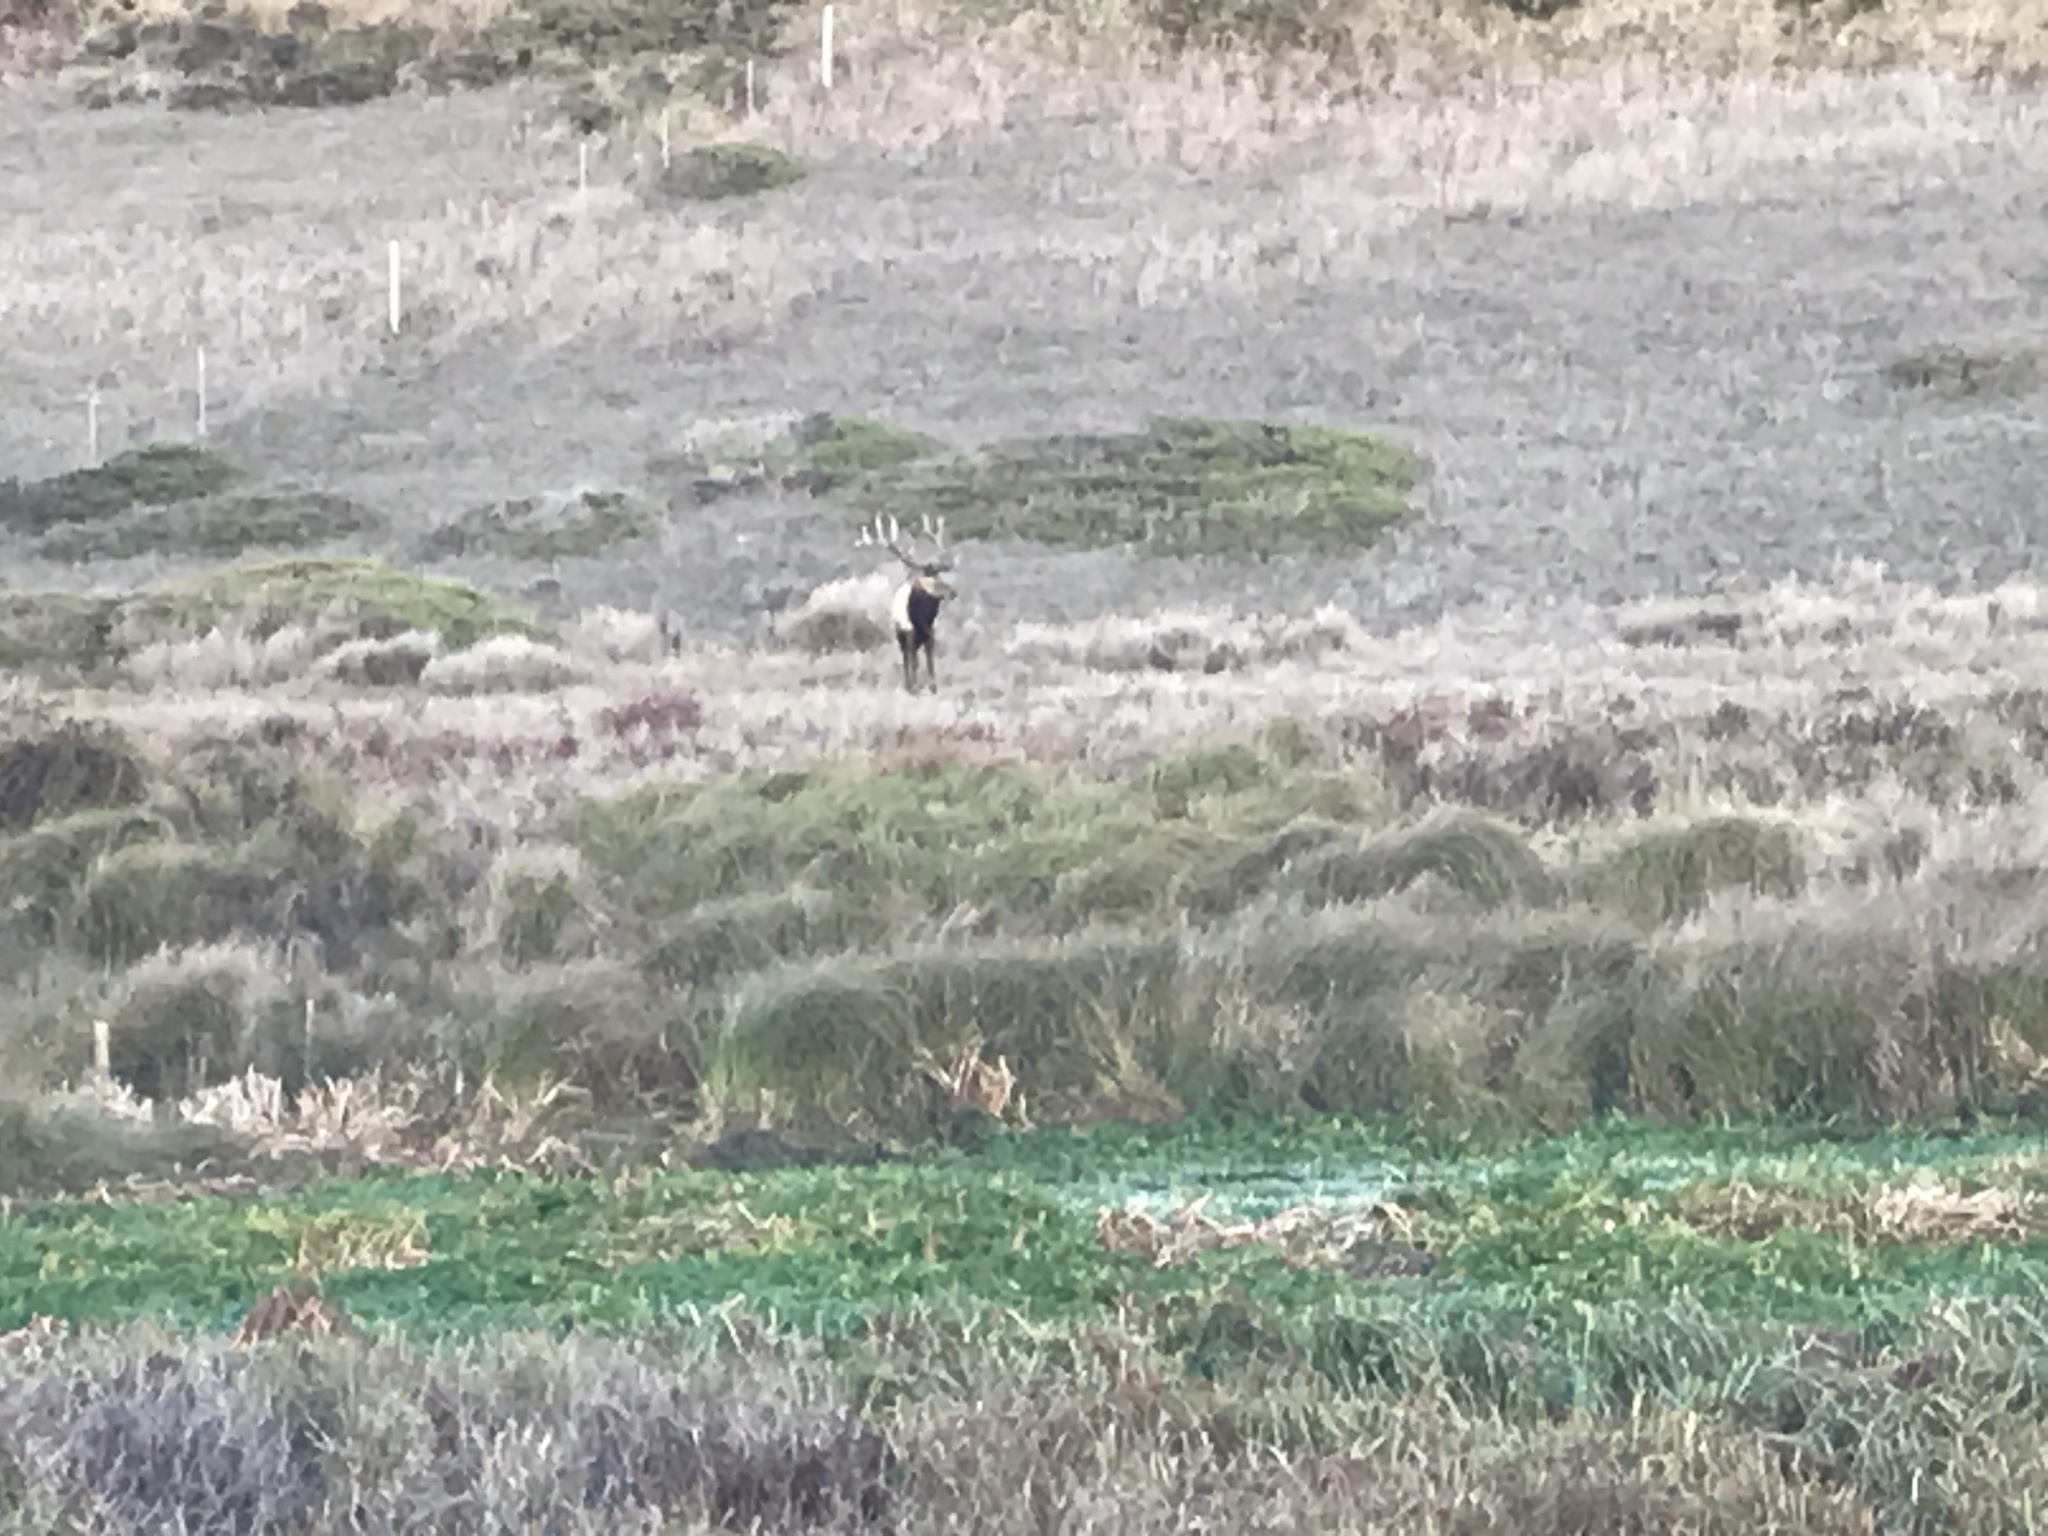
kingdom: Animalia
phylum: Chordata
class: Mammalia
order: Artiodactyla
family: Cervidae
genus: Cervus
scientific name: Cervus elaphus
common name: Red deer
